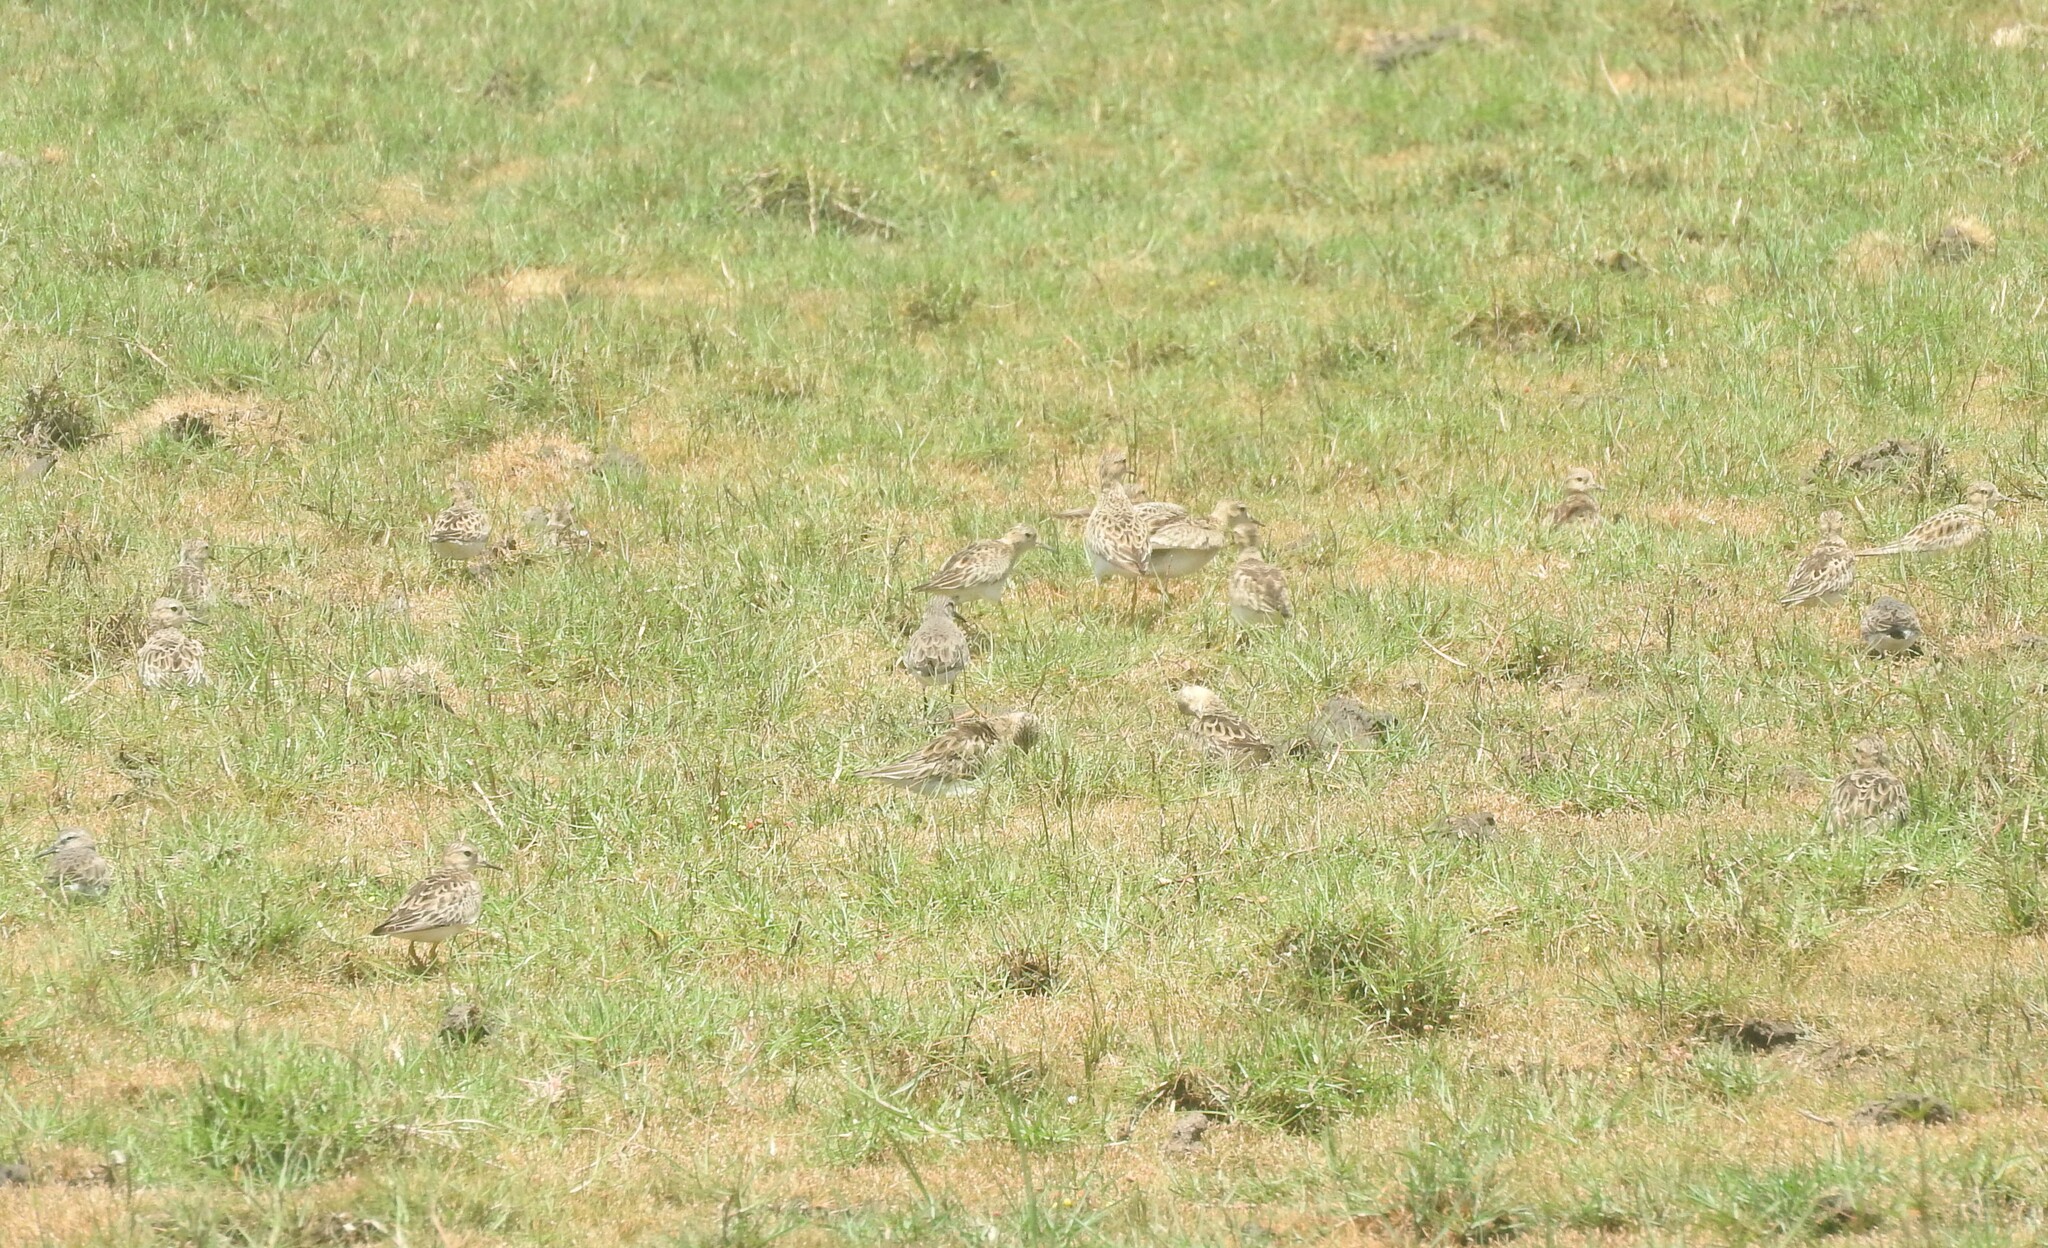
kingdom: Animalia
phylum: Chordata
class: Aves
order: Charadriiformes
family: Scolopacidae
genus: Calidris
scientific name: Calidris subruficollis
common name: Buff-breasted sandpiper
